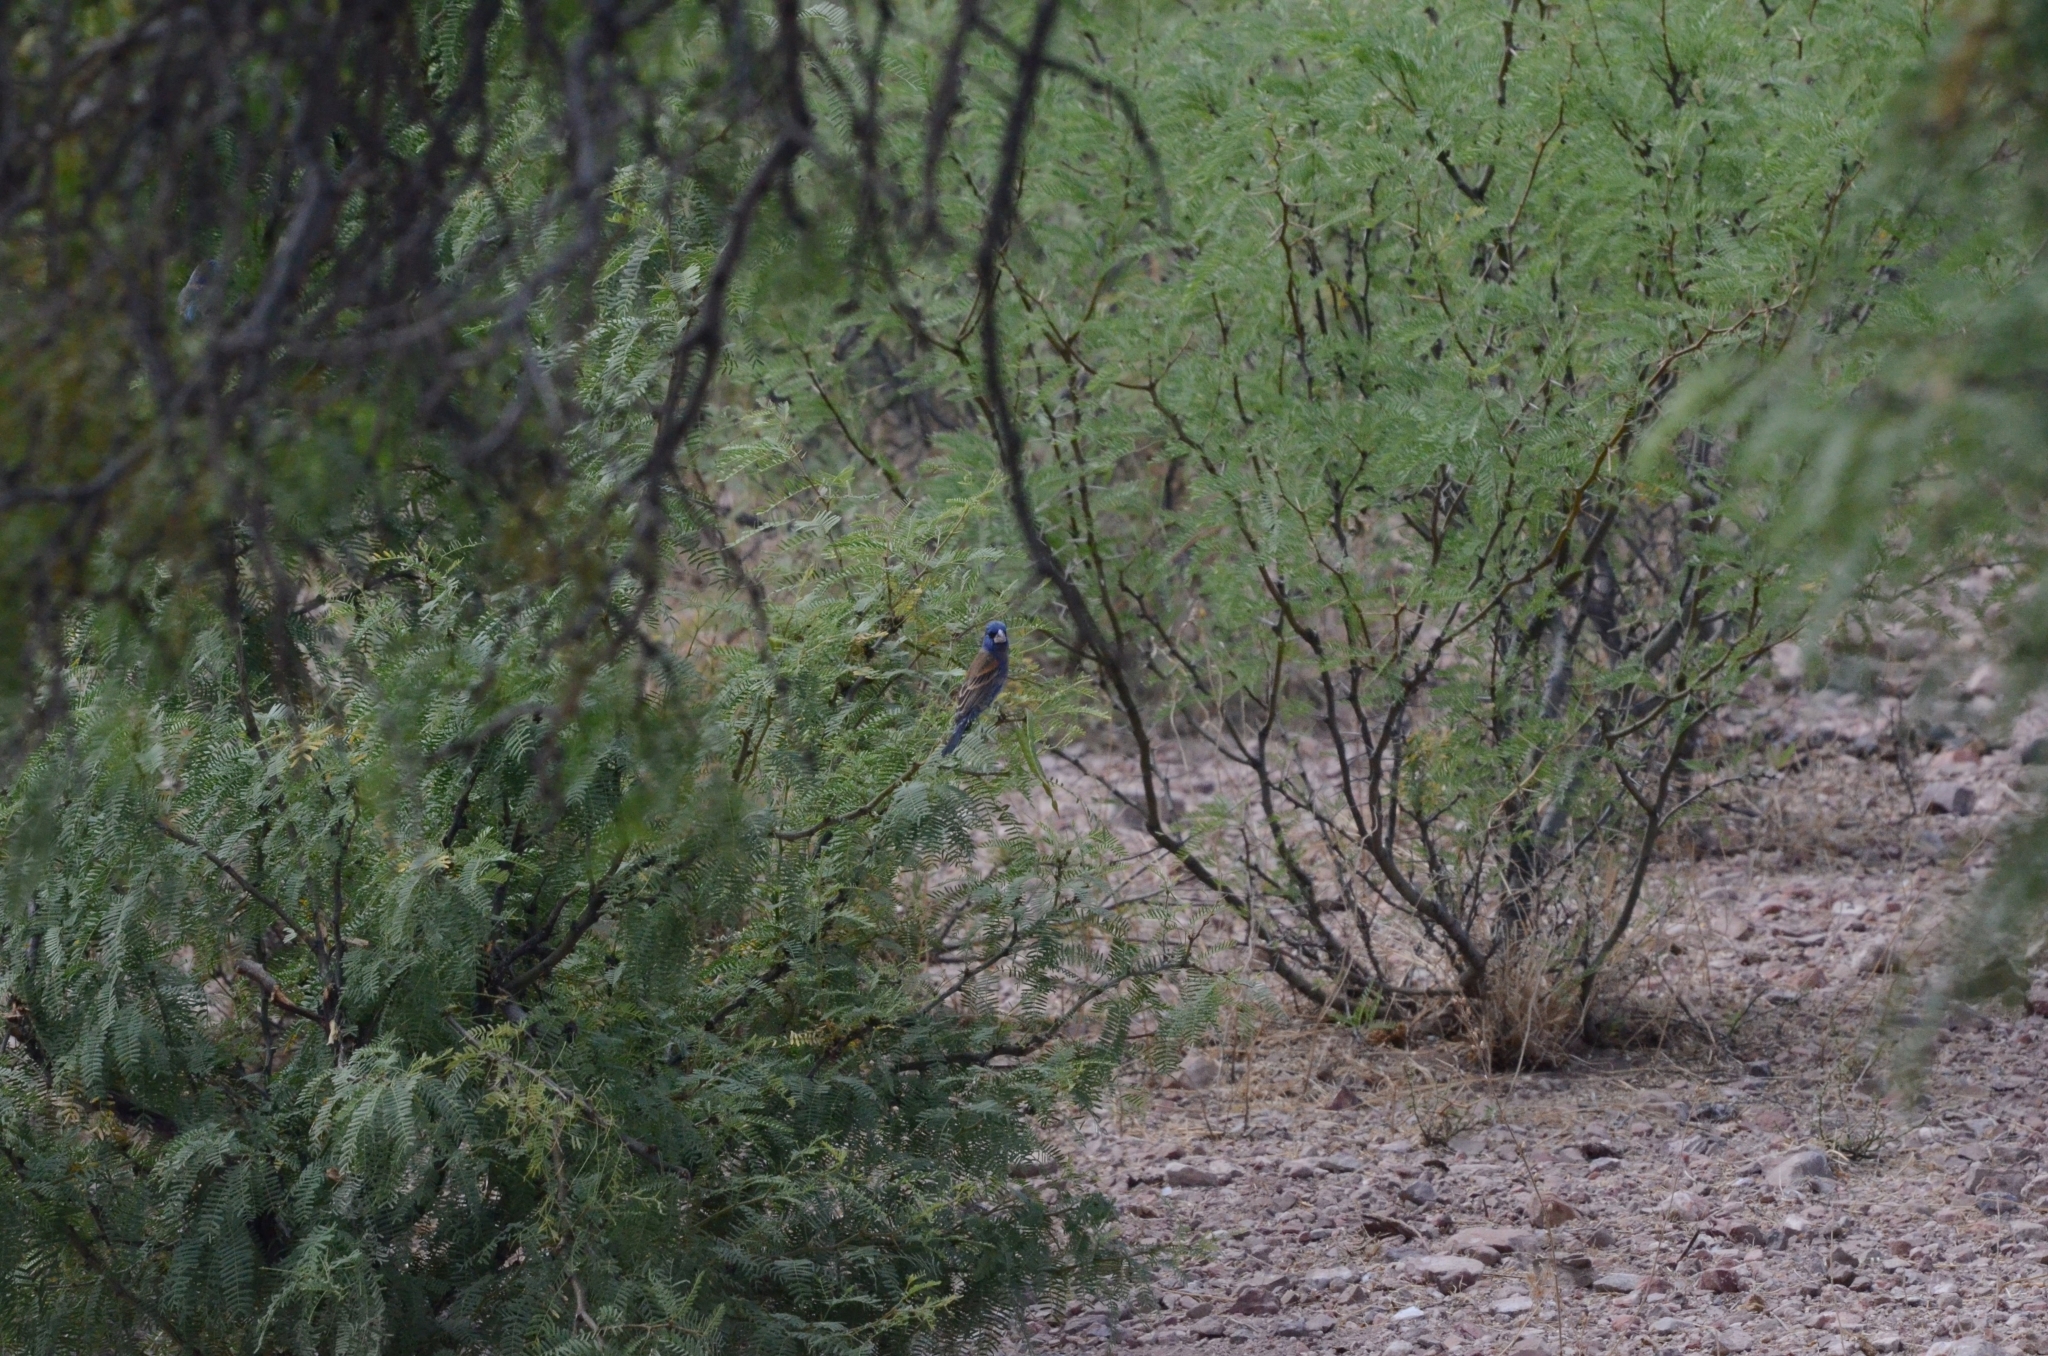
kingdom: Animalia
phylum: Chordata
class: Aves
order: Passeriformes
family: Cardinalidae
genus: Passerina
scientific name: Passerina caerulea
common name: Blue grosbeak
